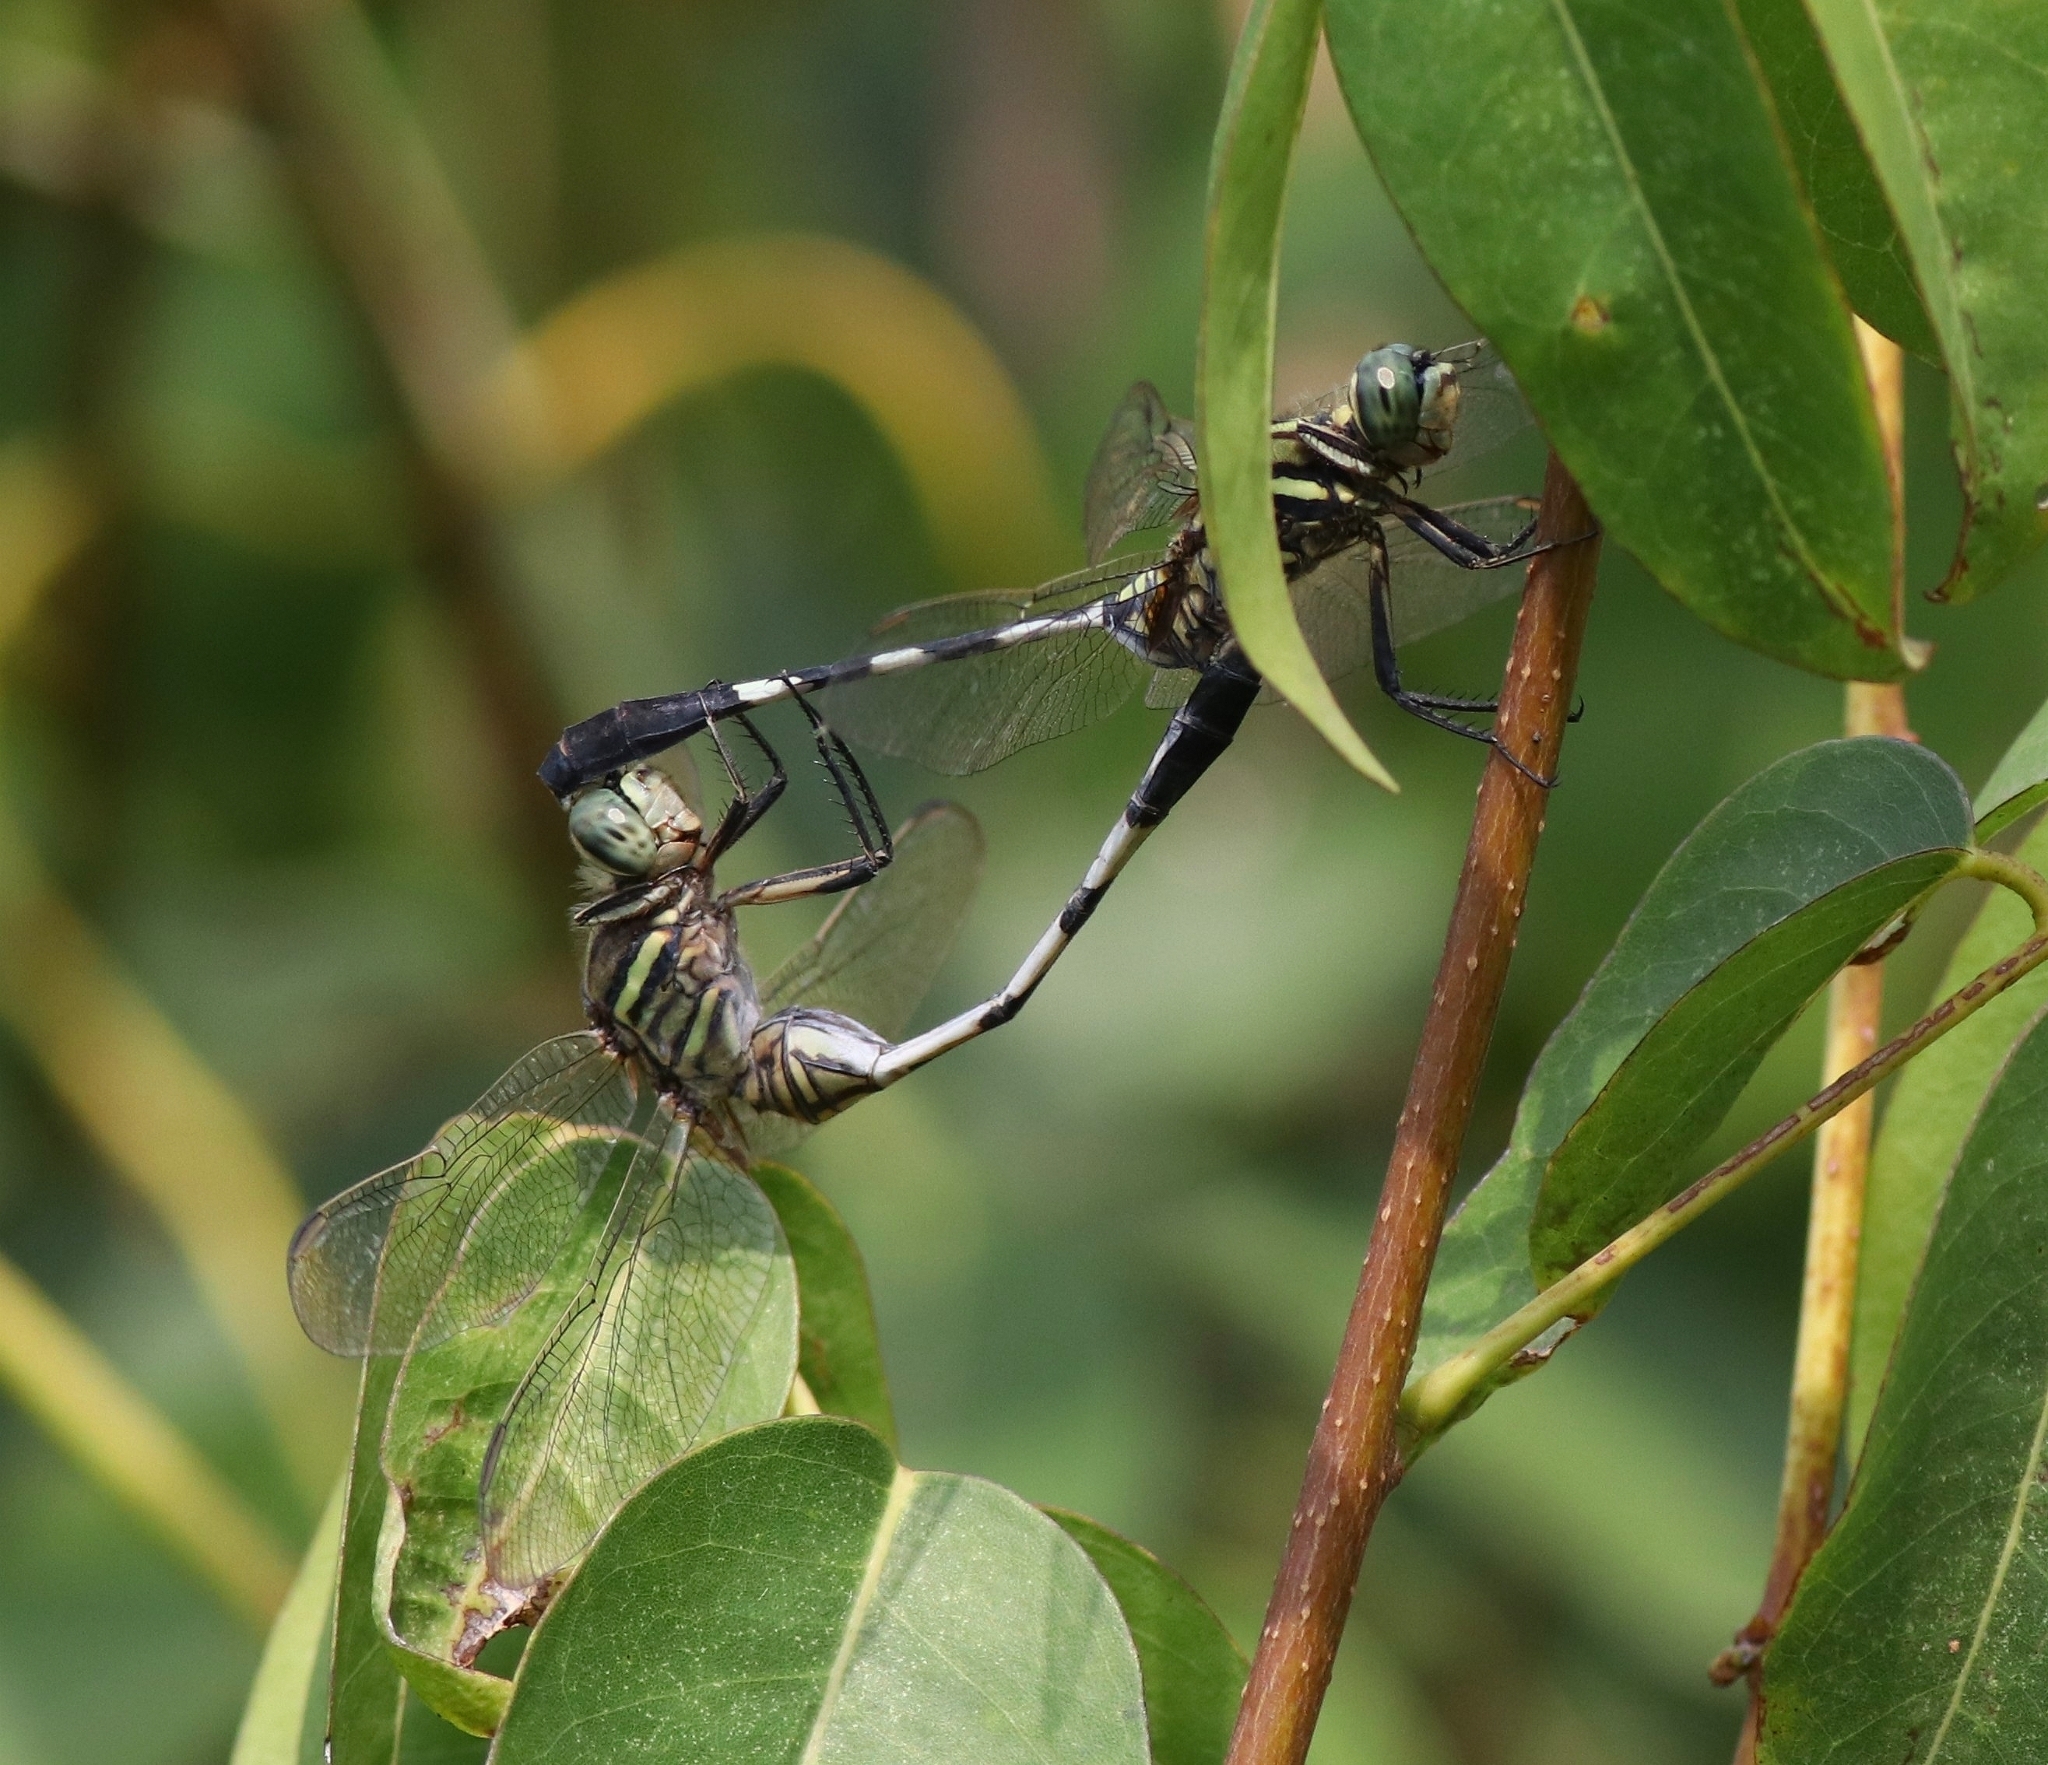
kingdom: Animalia
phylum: Arthropoda
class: Insecta
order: Odonata
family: Libellulidae
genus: Orthetrum
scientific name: Orthetrum sabina
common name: Slender skimmer
